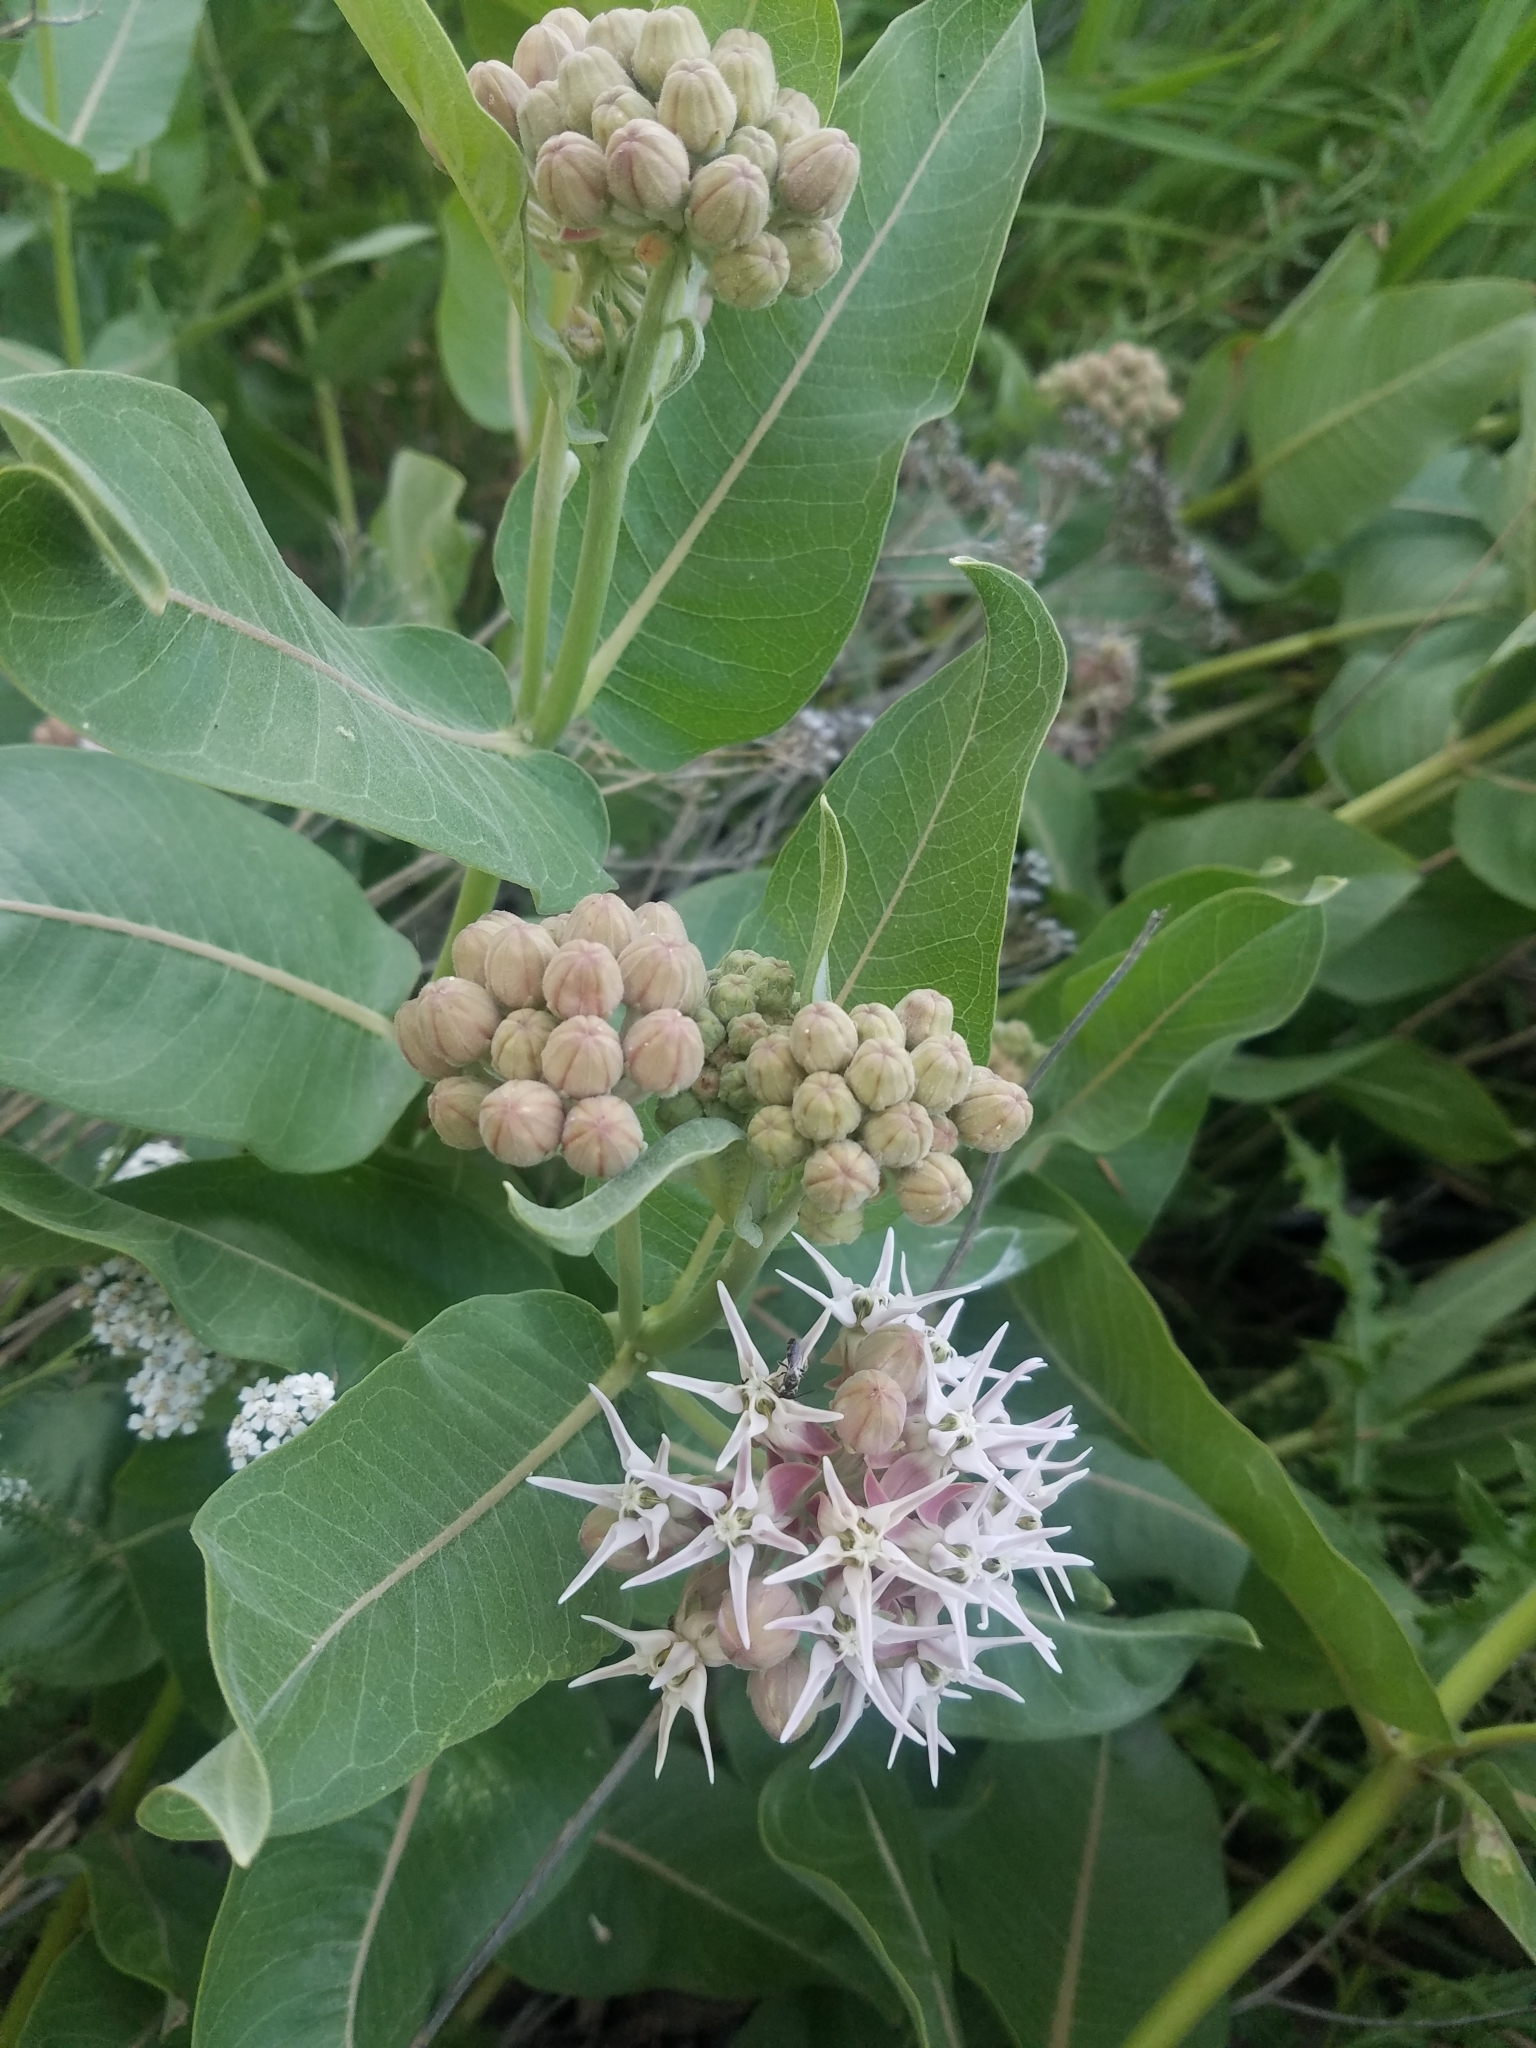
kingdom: Plantae
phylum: Tracheophyta
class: Magnoliopsida
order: Gentianales
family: Apocynaceae
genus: Asclepias
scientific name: Asclepias speciosa
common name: Showy milkweed
